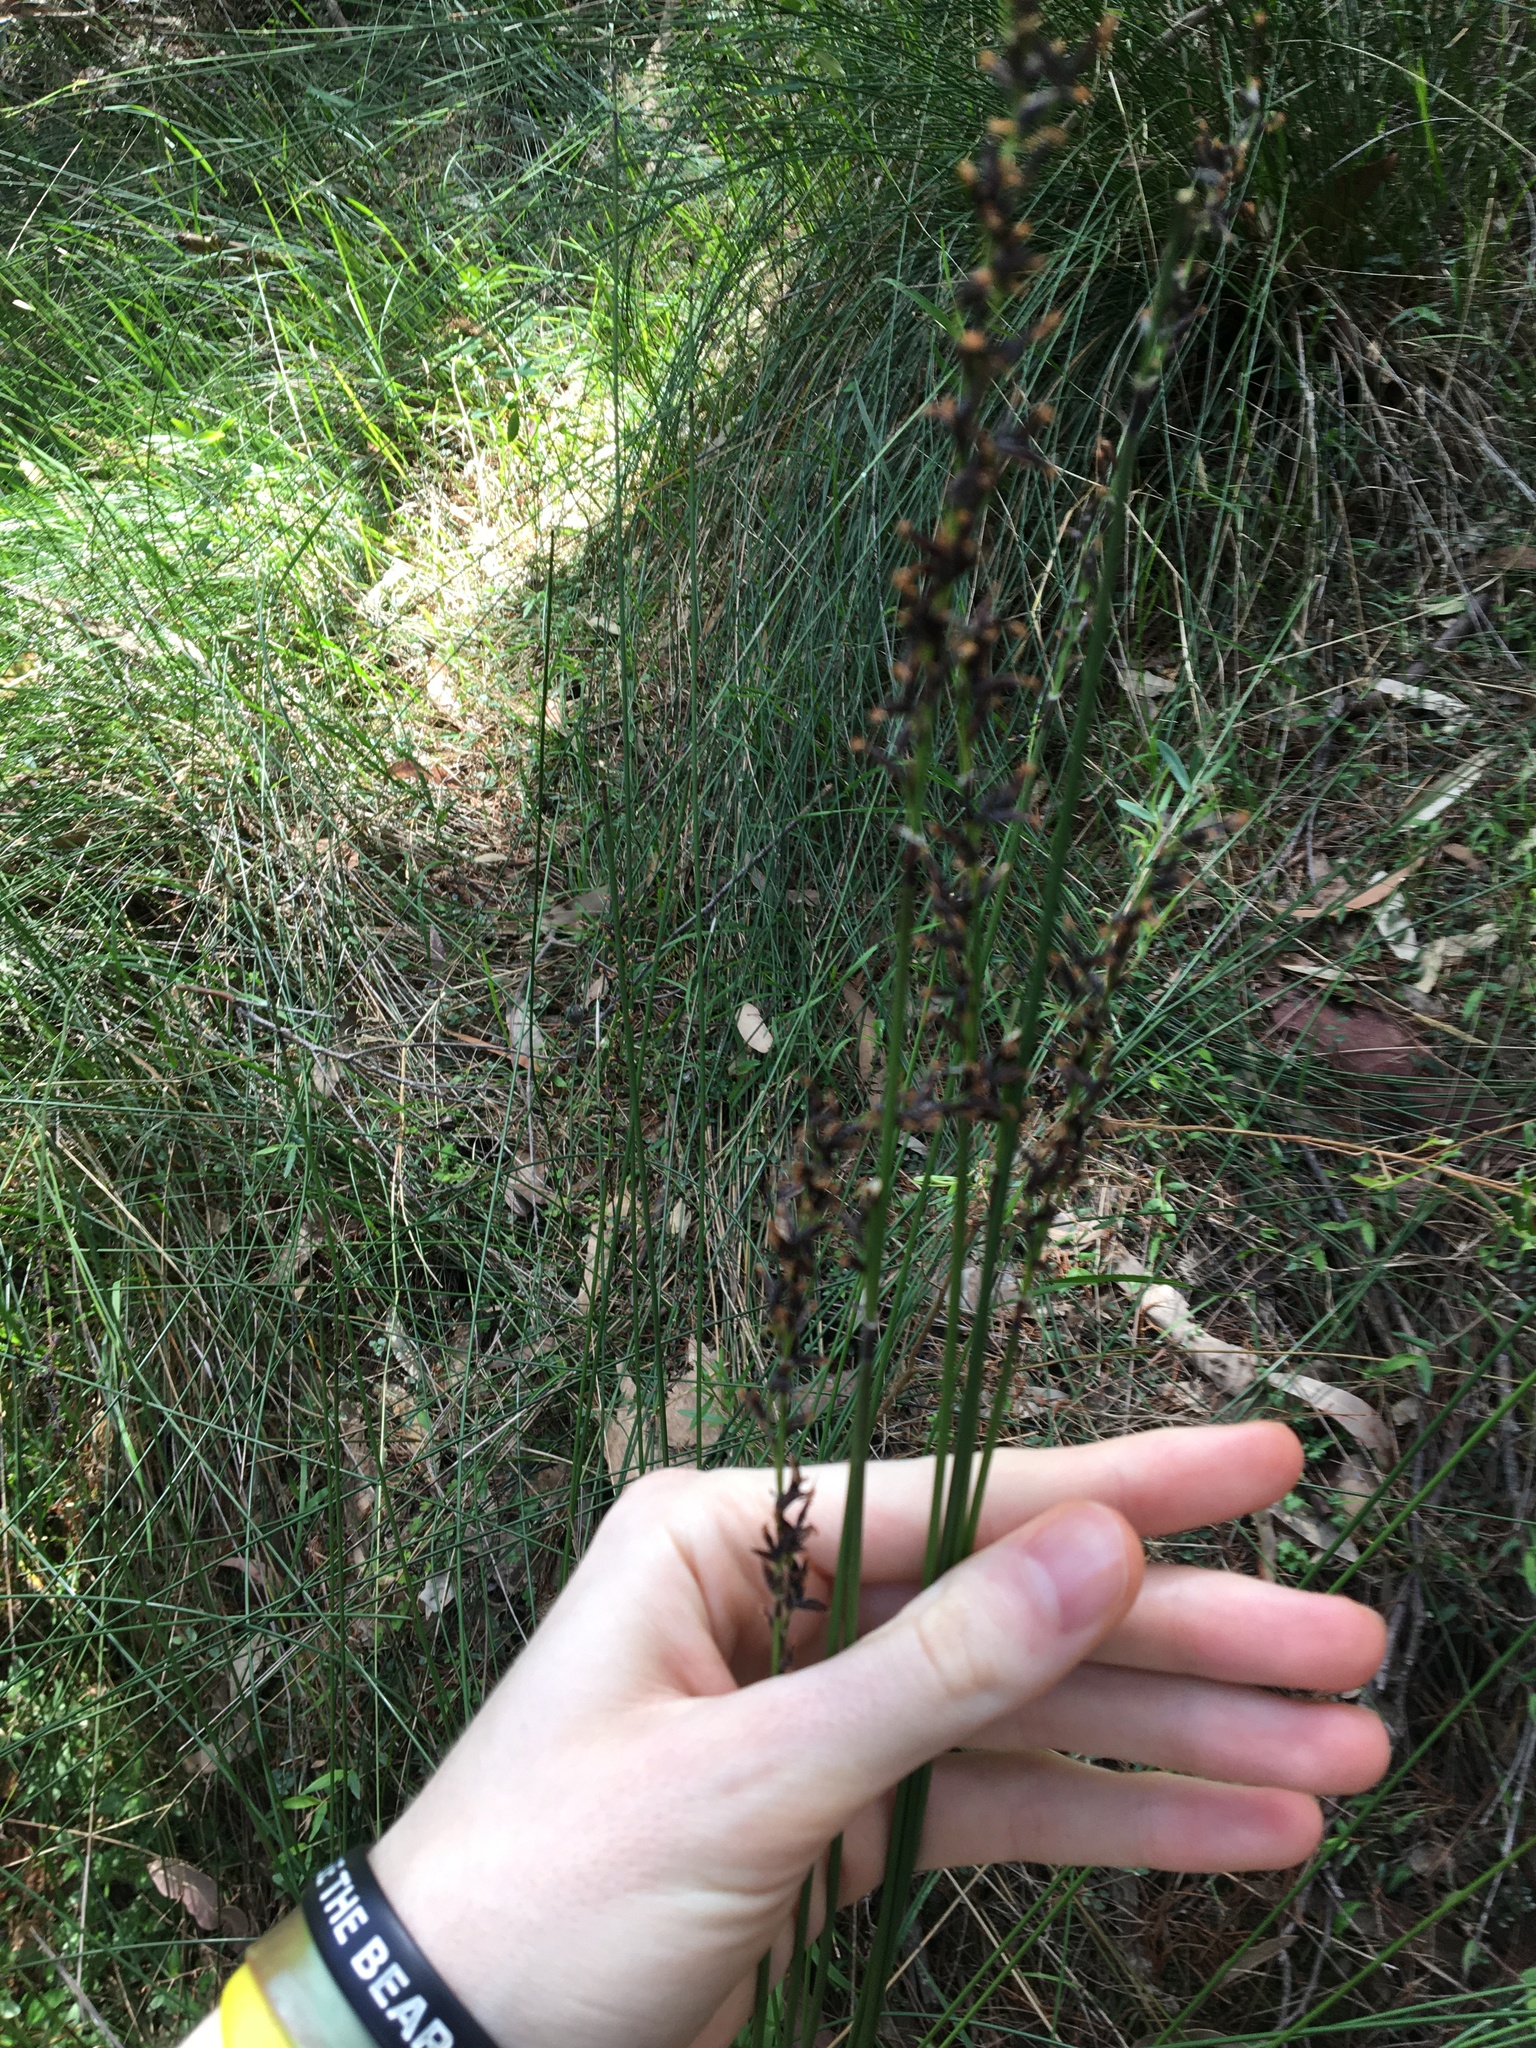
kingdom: Plantae
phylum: Tracheophyta
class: Liliopsida
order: Poales
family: Cyperaceae
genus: Schoenus
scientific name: Schoenus melanostachys
